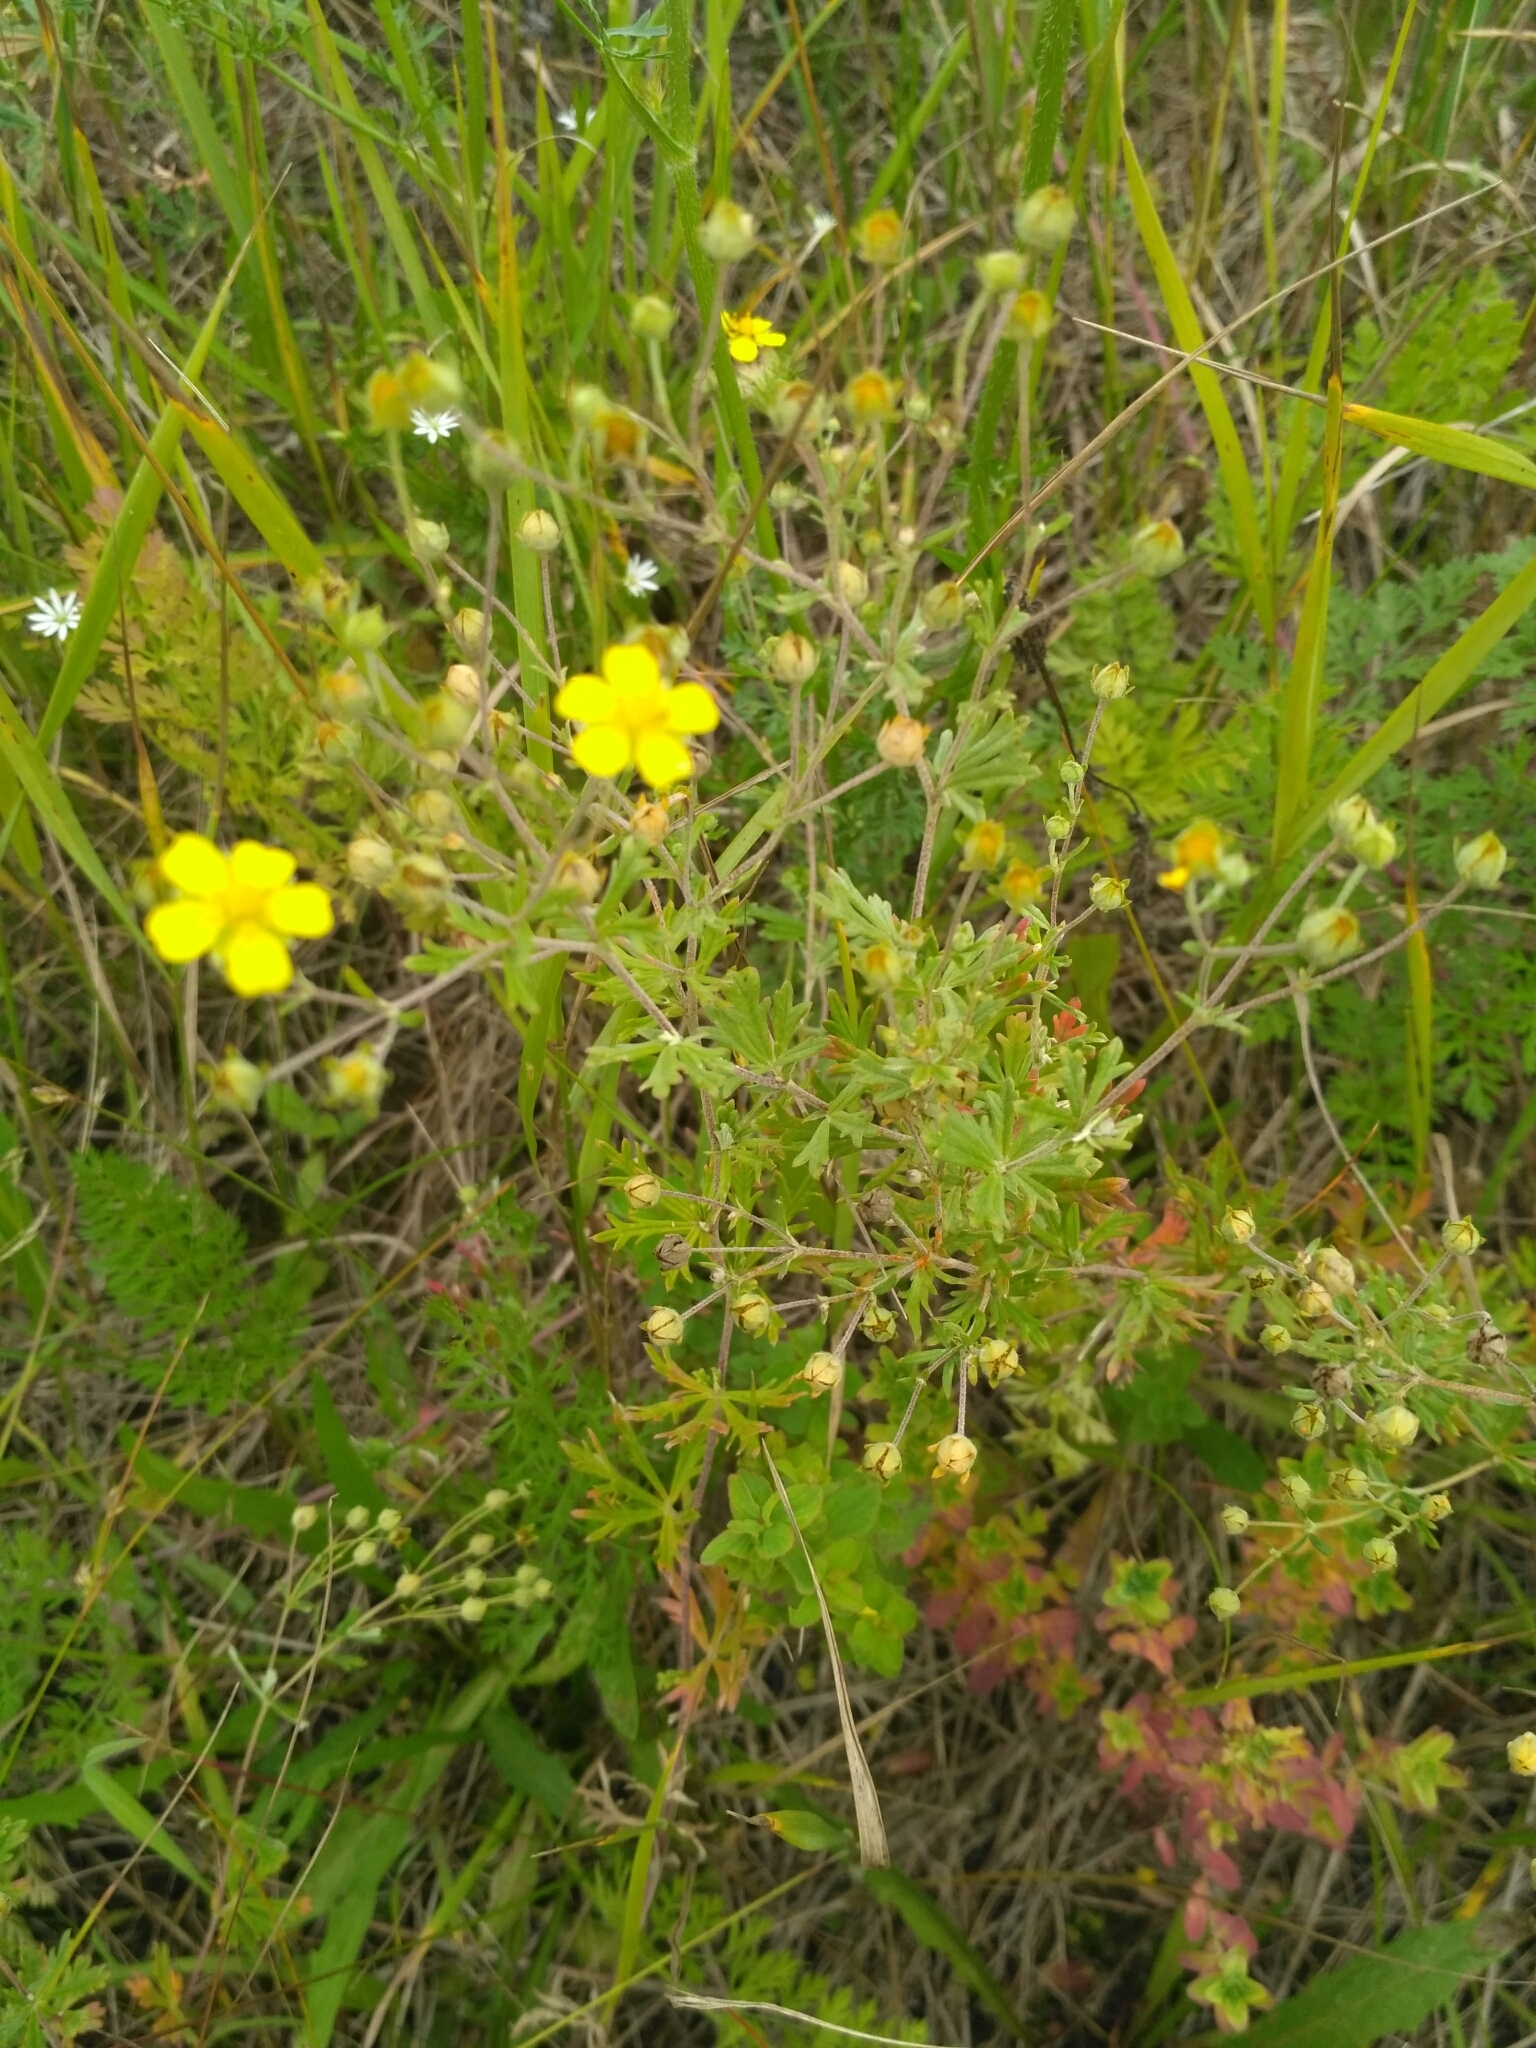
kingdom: Plantae
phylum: Tracheophyta
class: Magnoliopsida
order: Rosales
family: Rosaceae
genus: Potentilla
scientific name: Potentilla argentea
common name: Hoary cinquefoil
